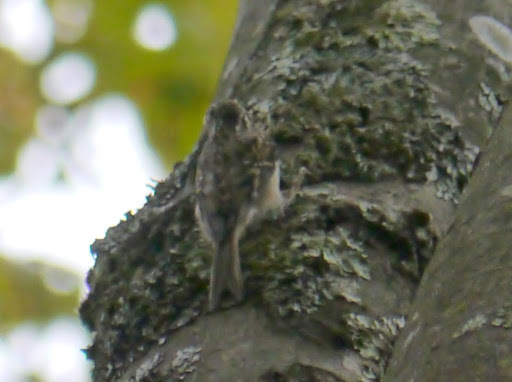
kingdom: Animalia
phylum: Chordata
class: Aves
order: Passeriformes
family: Certhiidae
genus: Certhia
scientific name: Certhia americana
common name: Brown creeper
